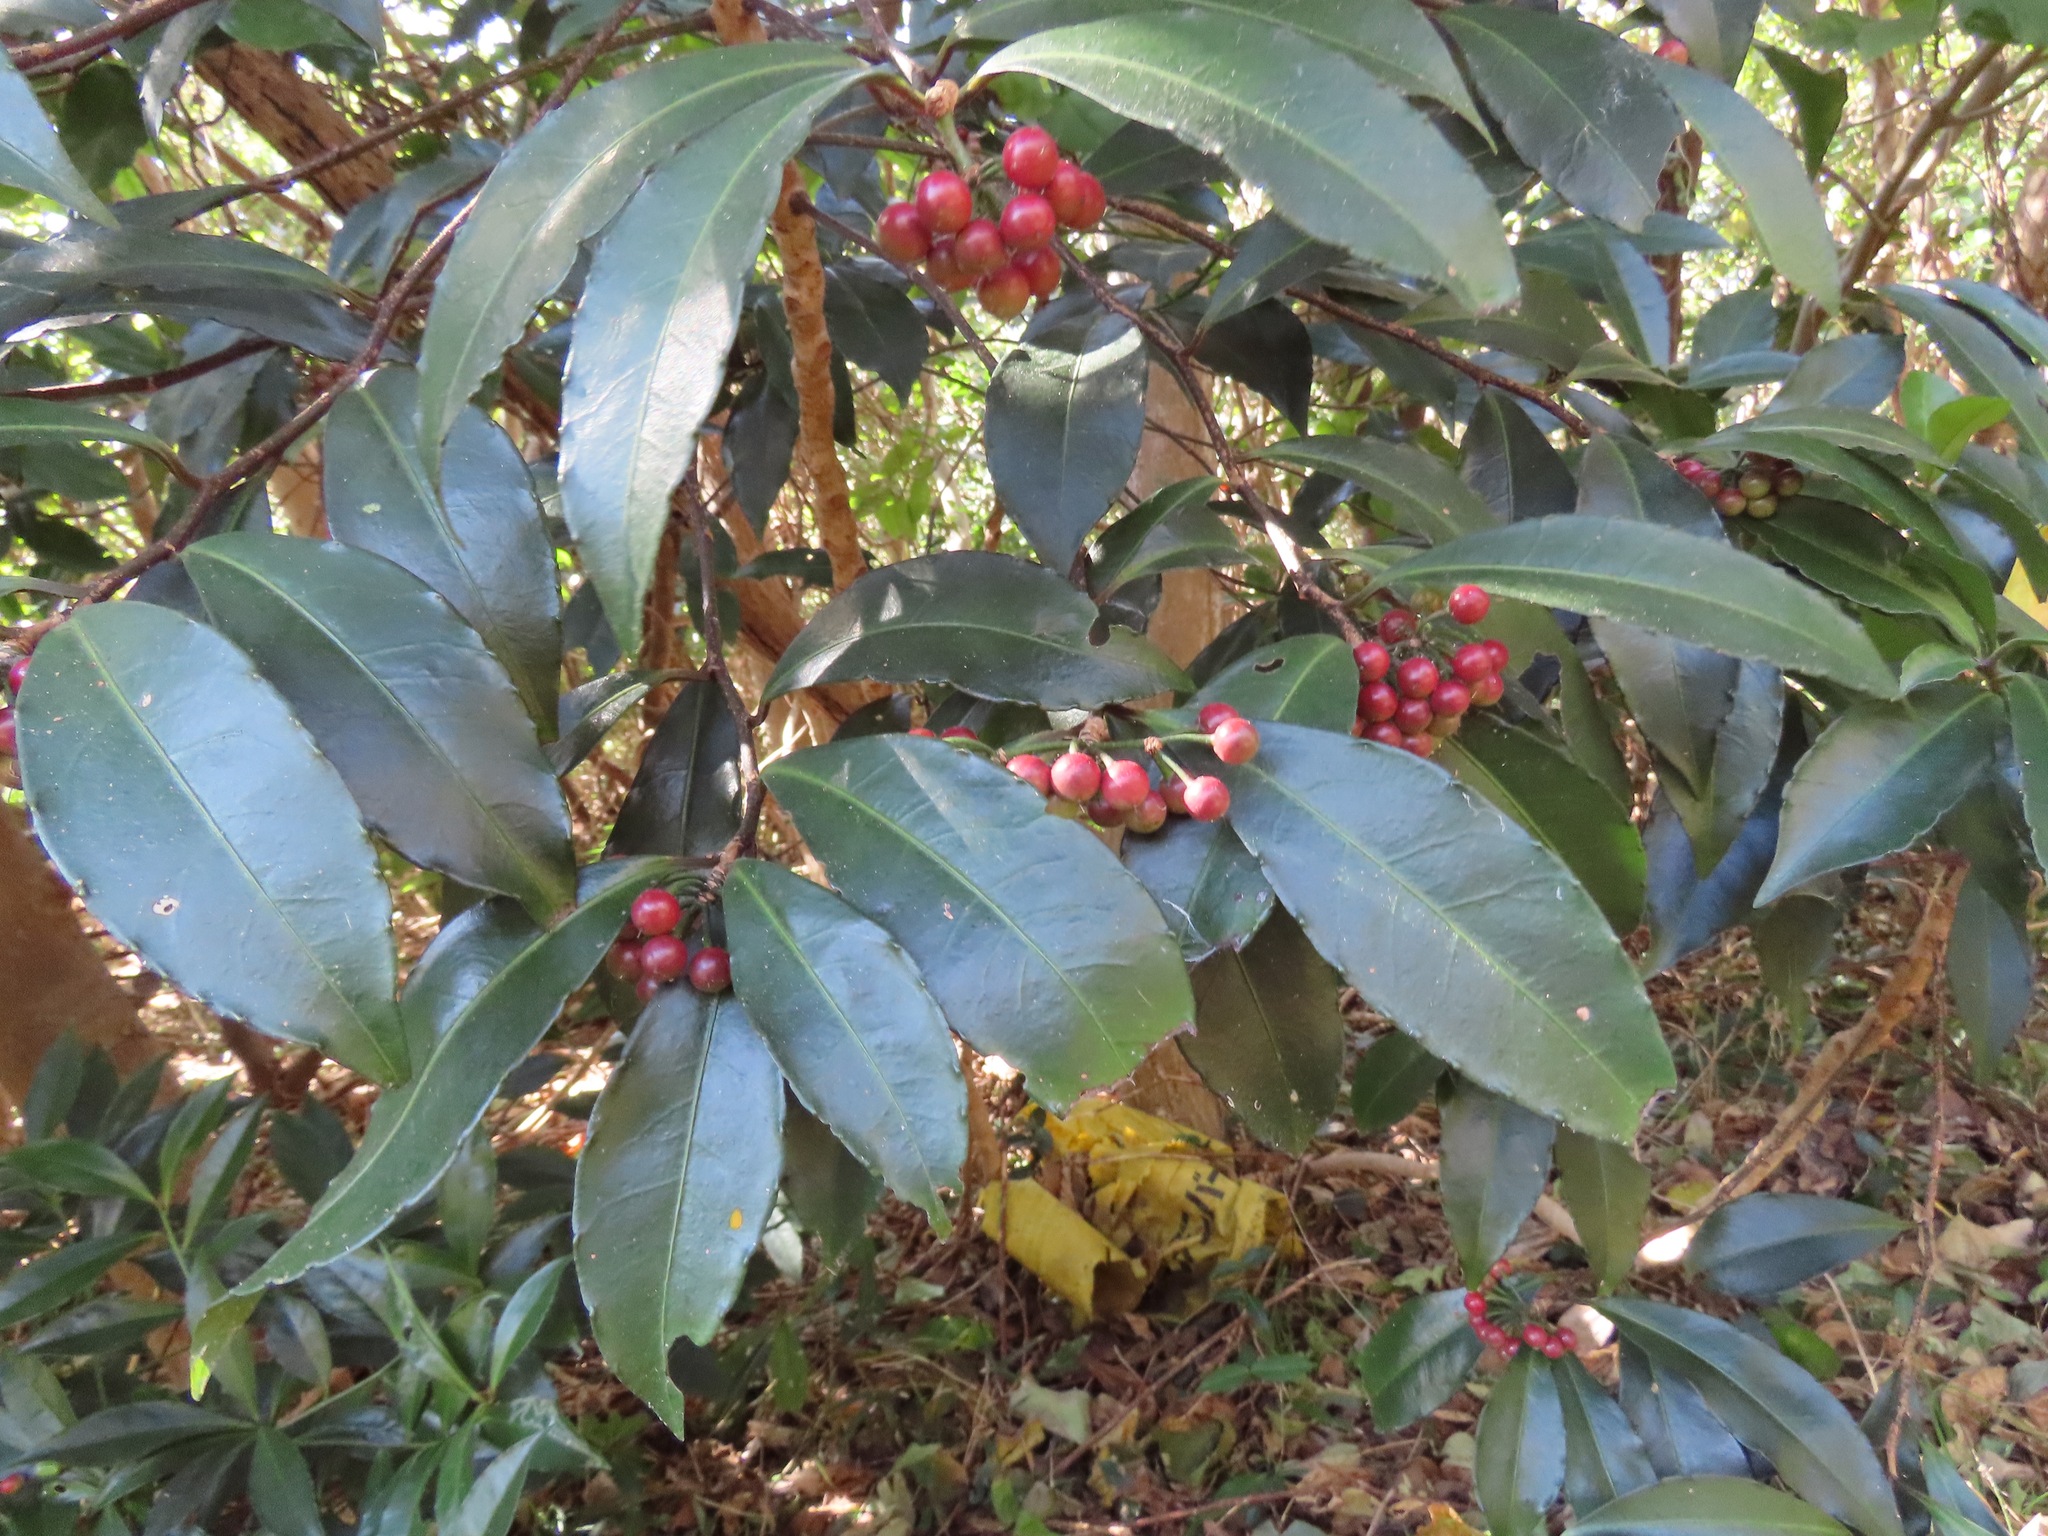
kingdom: Plantae
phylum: Tracheophyta
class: Magnoliopsida
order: Ericales
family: Primulaceae
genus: Ardisia
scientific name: Ardisia crenata
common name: Hen's eyes
